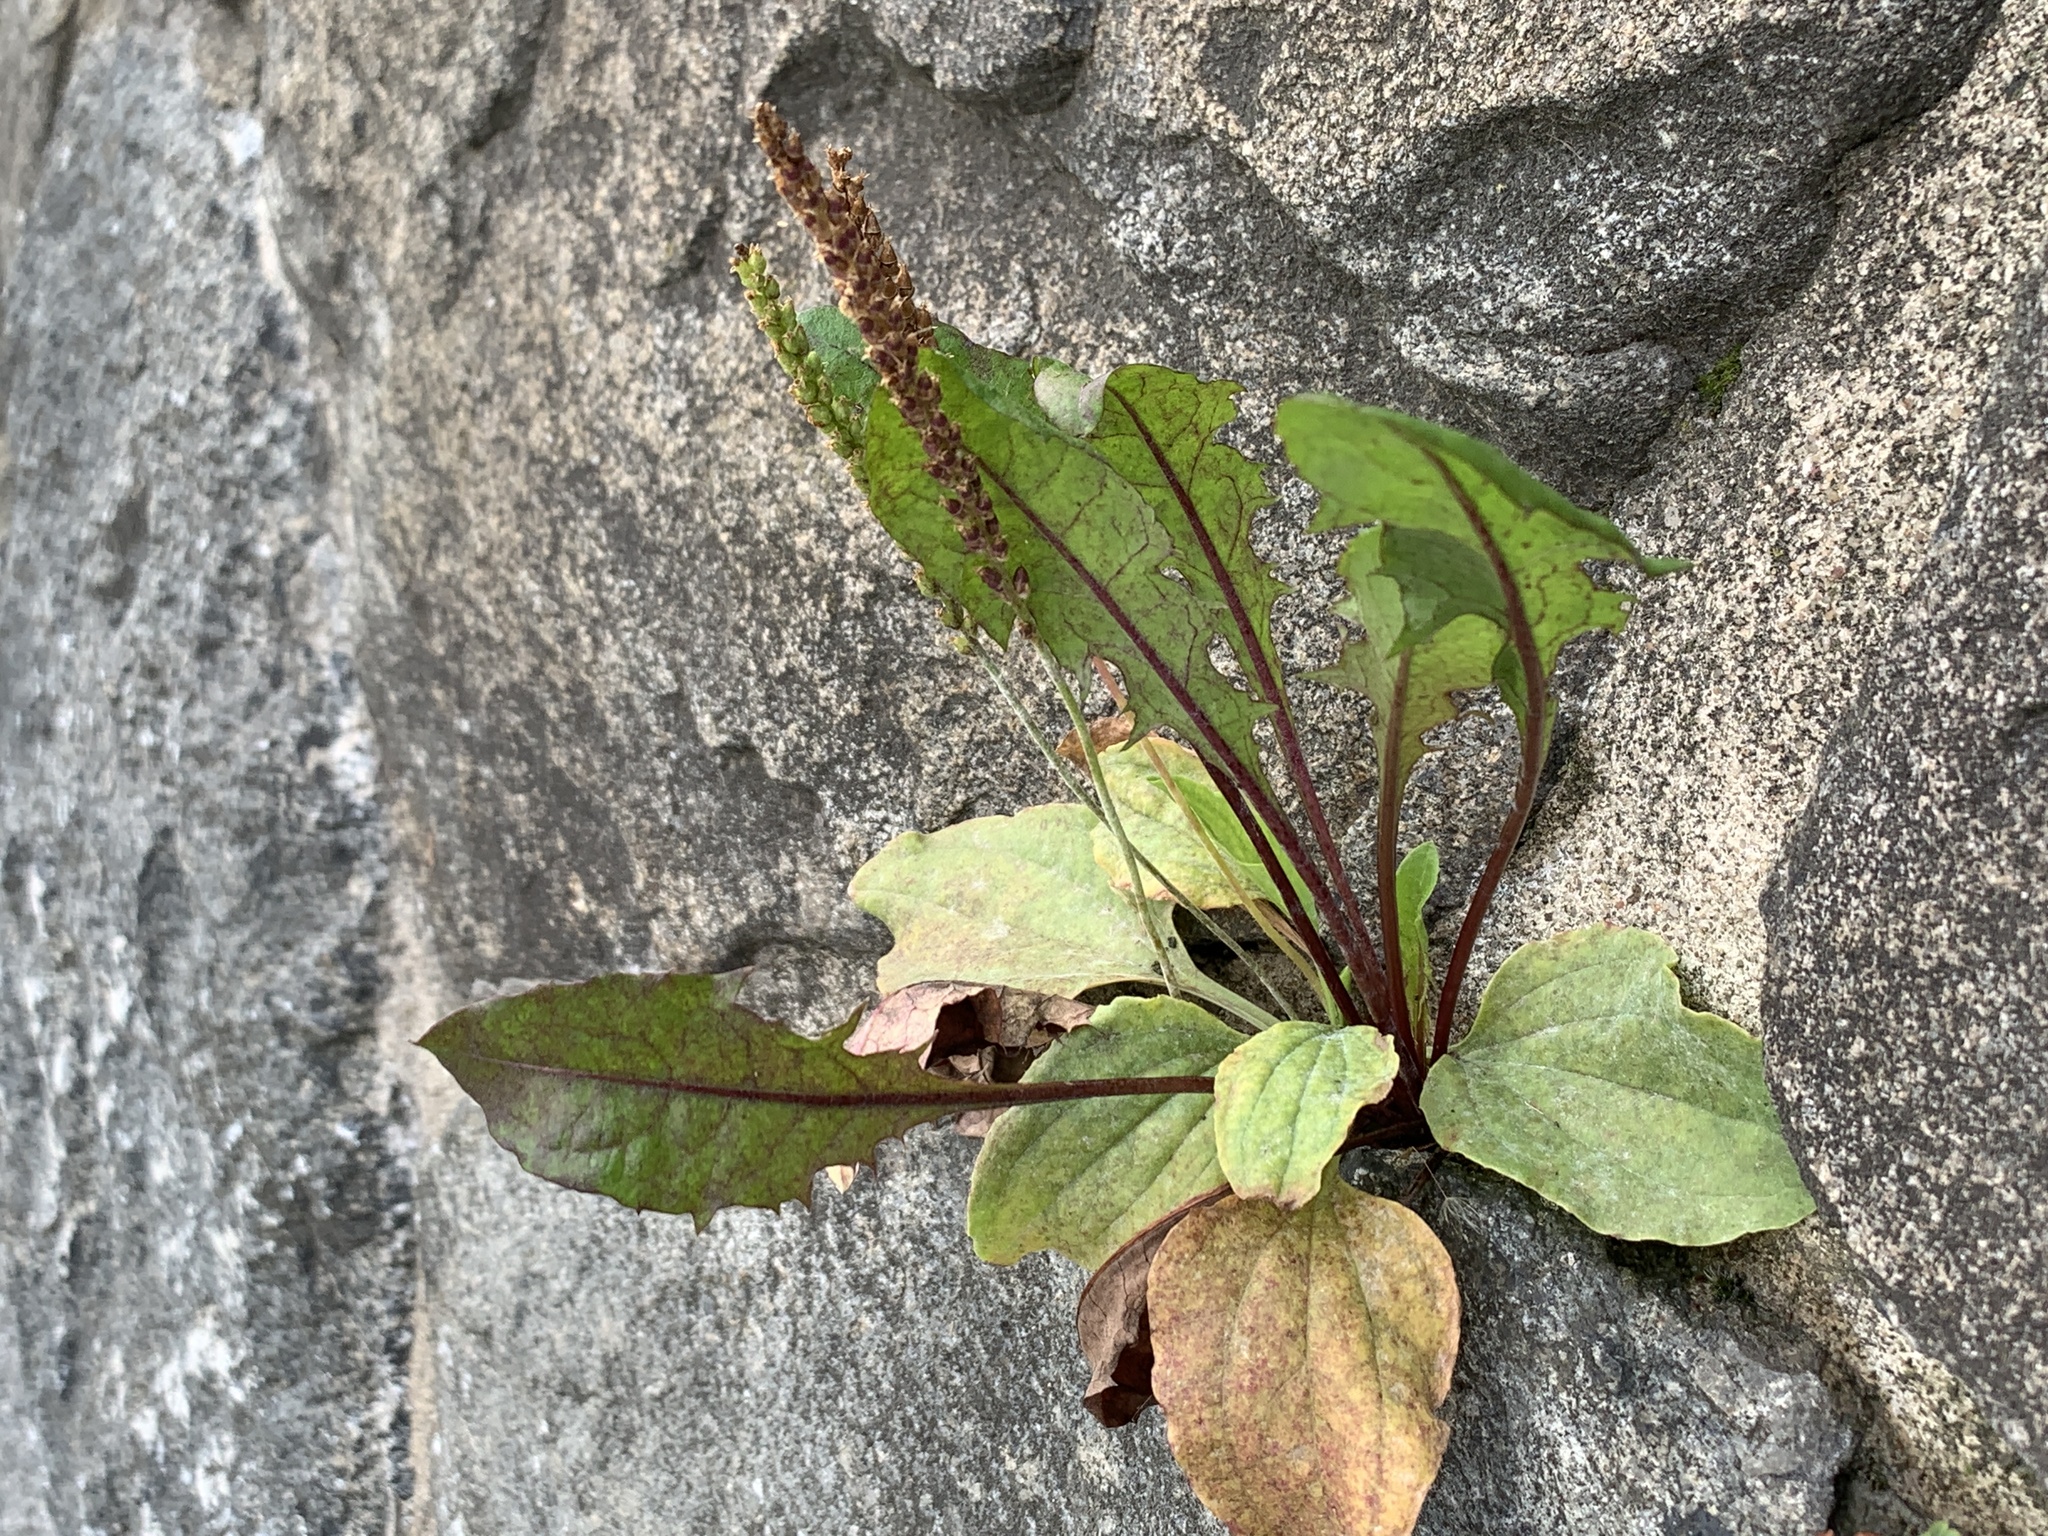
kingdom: Plantae
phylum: Tracheophyta
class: Magnoliopsida
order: Lamiales
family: Plantaginaceae
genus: Plantago
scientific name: Plantago major
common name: Common plantain
